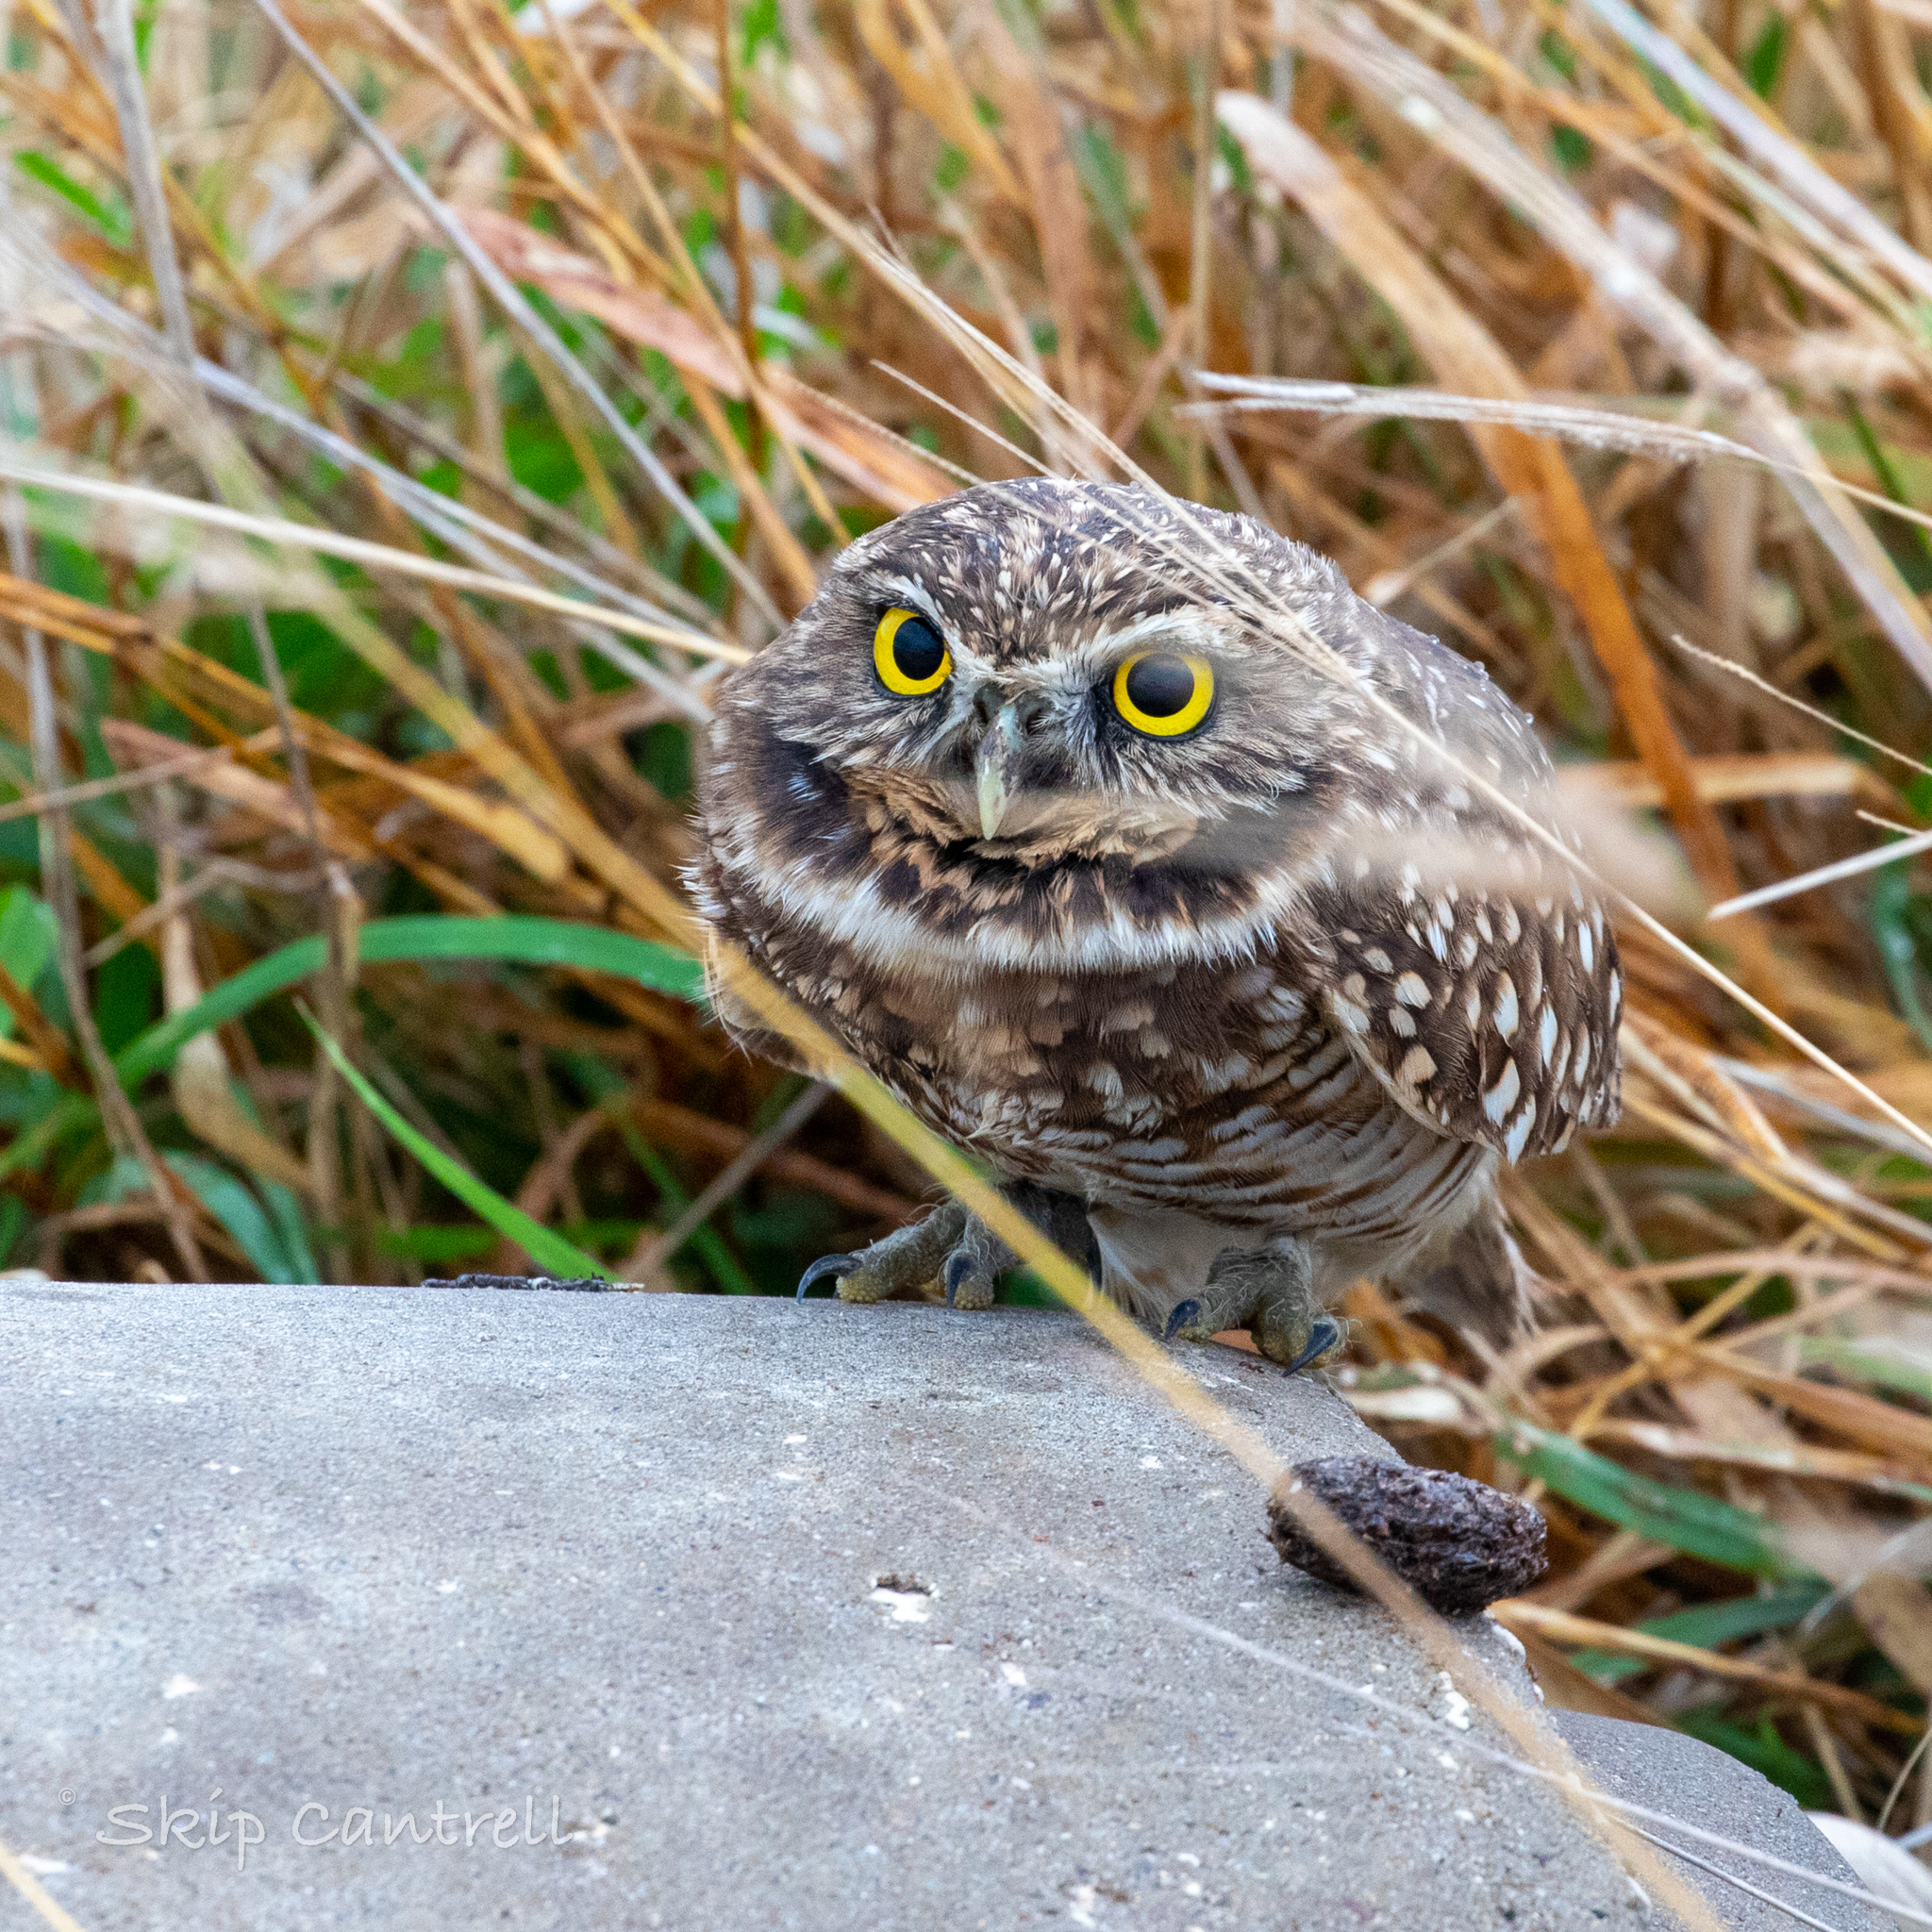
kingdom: Animalia
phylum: Chordata
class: Aves
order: Strigiformes
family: Strigidae
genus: Athene
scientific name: Athene cunicularia
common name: Burrowing owl
